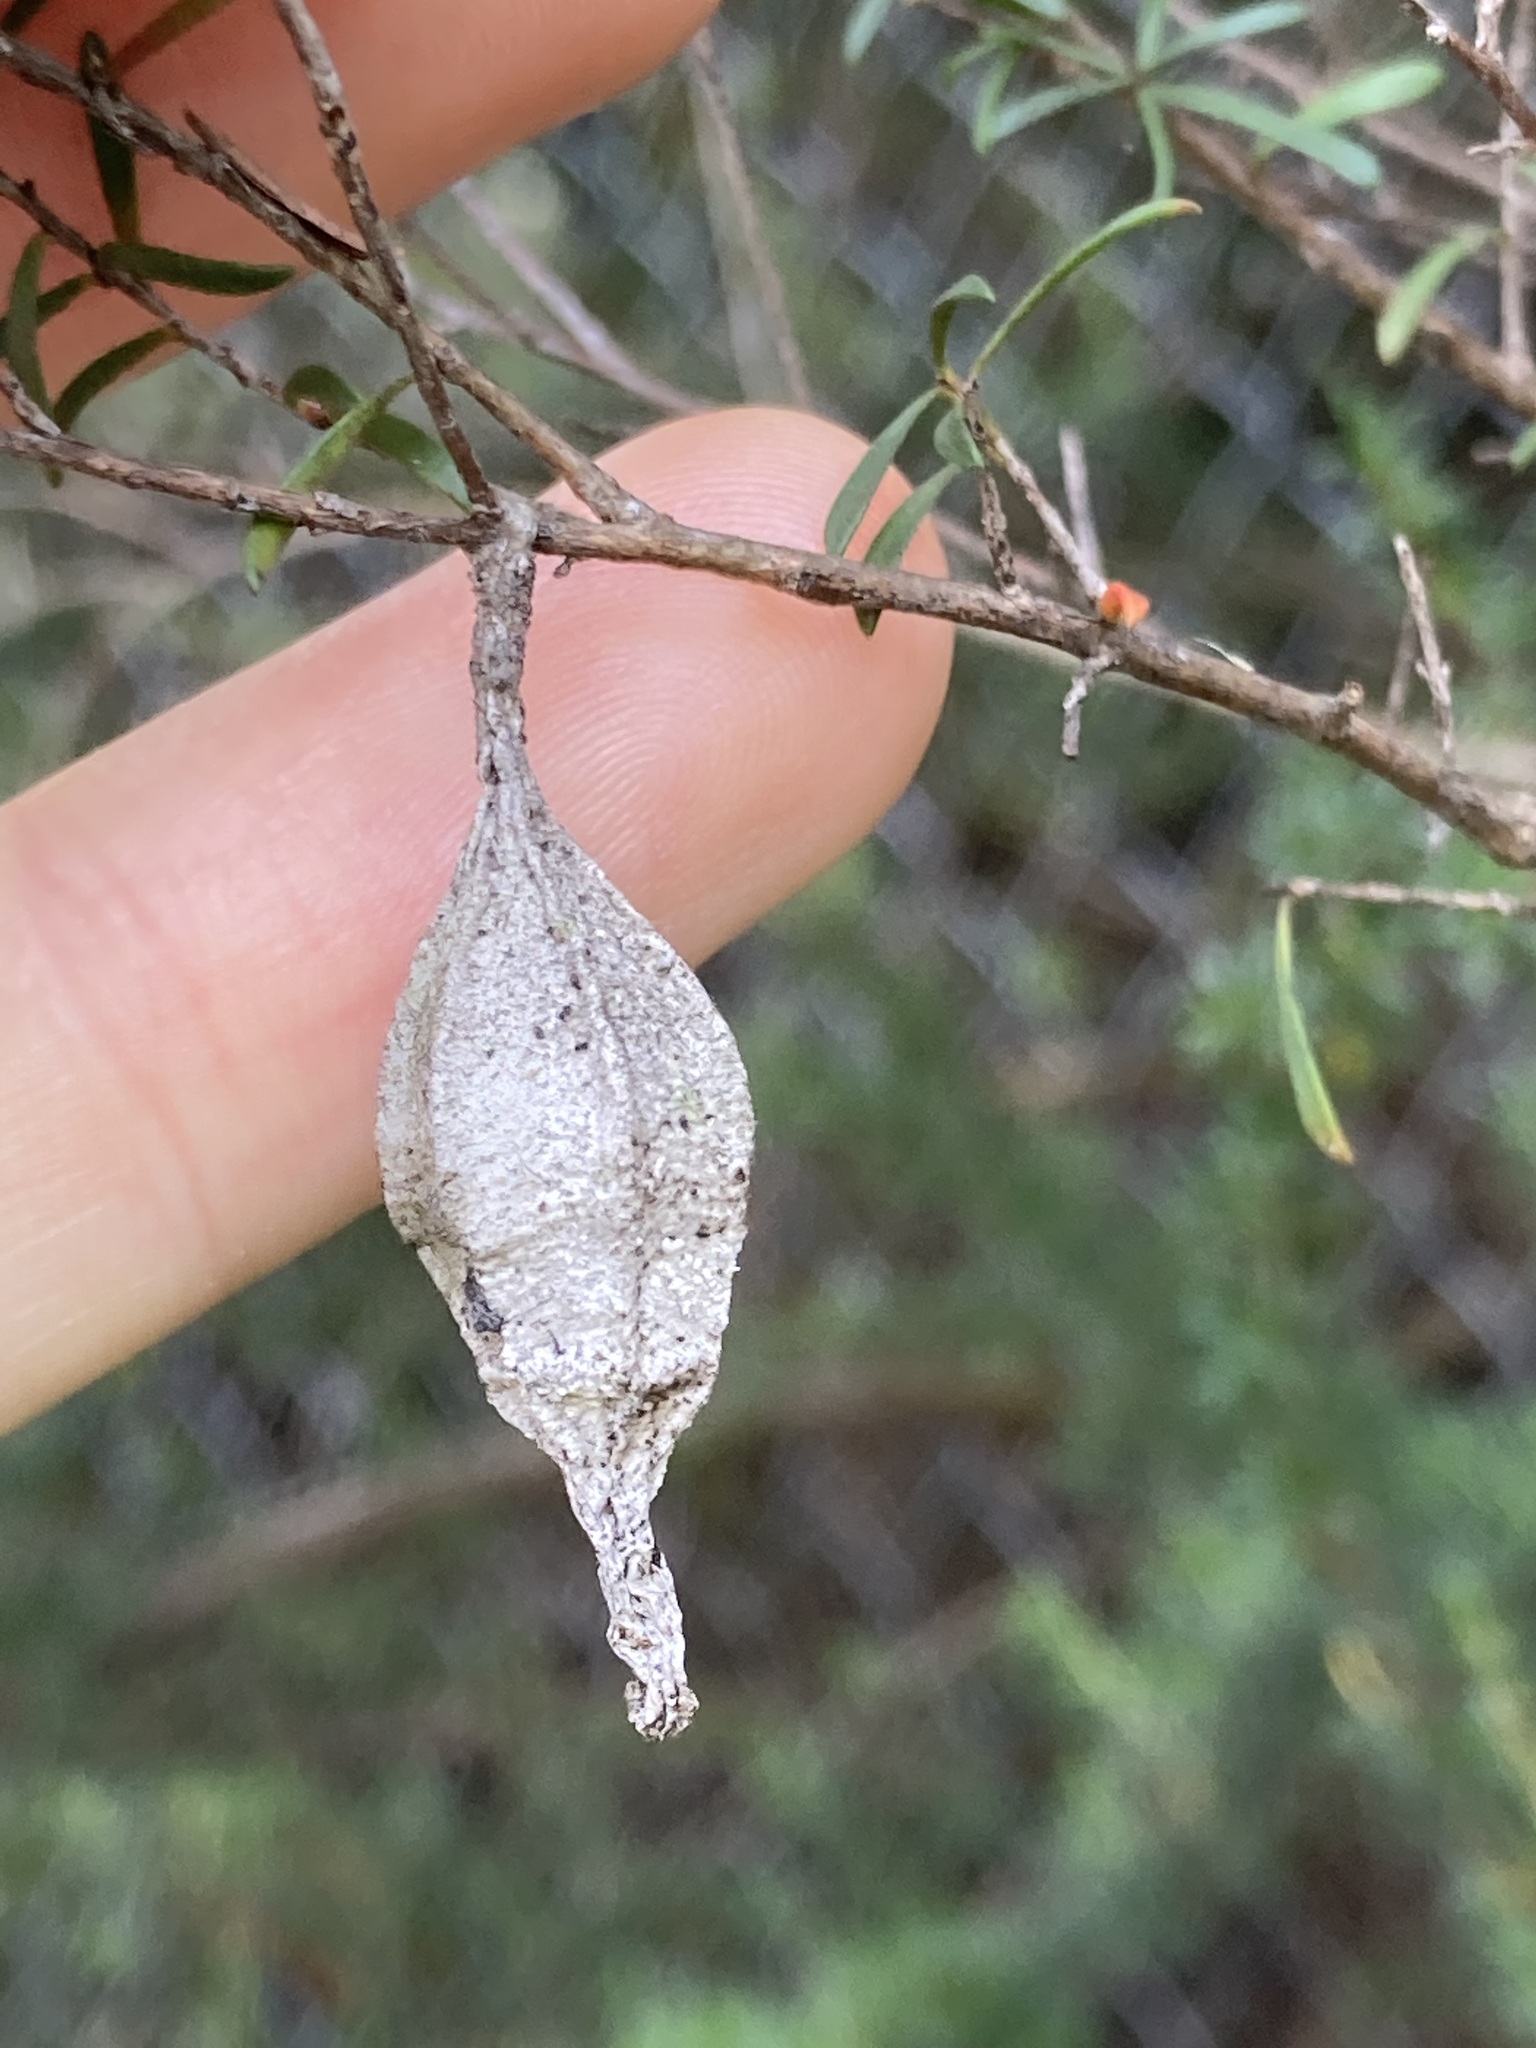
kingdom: Animalia
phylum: Arthropoda
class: Insecta
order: Lepidoptera
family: Psychidae
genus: Hyalarcta
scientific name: Hyalarcta nigrescens
